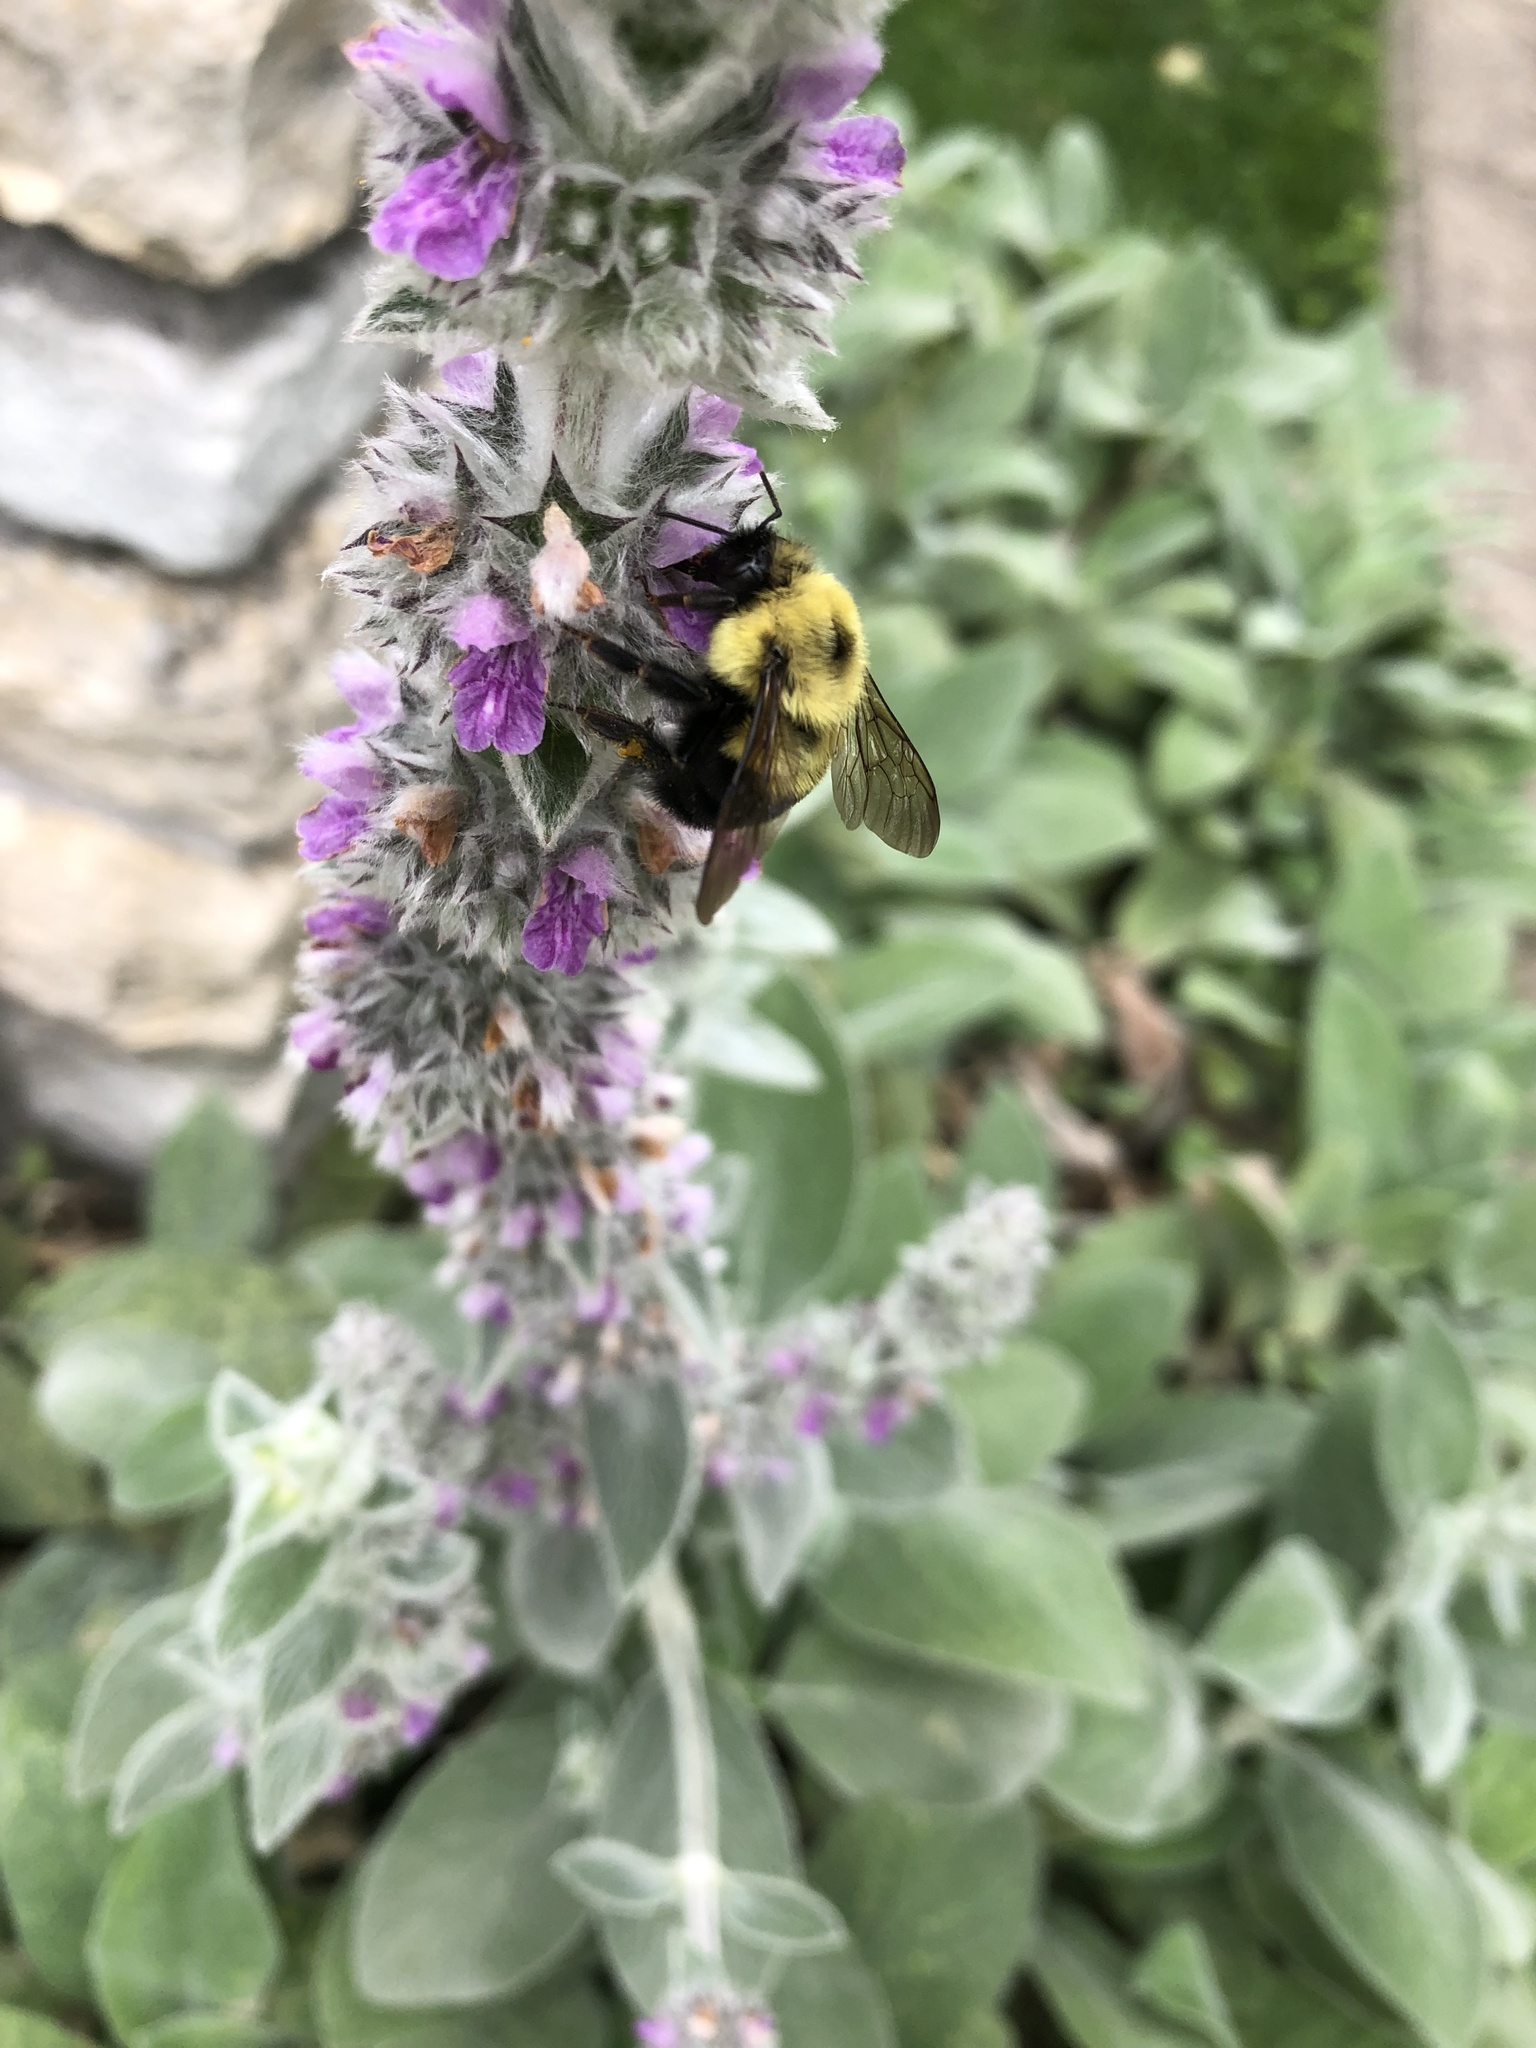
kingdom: Animalia
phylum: Arthropoda
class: Insecta
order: Hymenoptera
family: Apidae
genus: Bombus
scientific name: Bombus bimaculatus
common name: Two-spotted bumble bee
